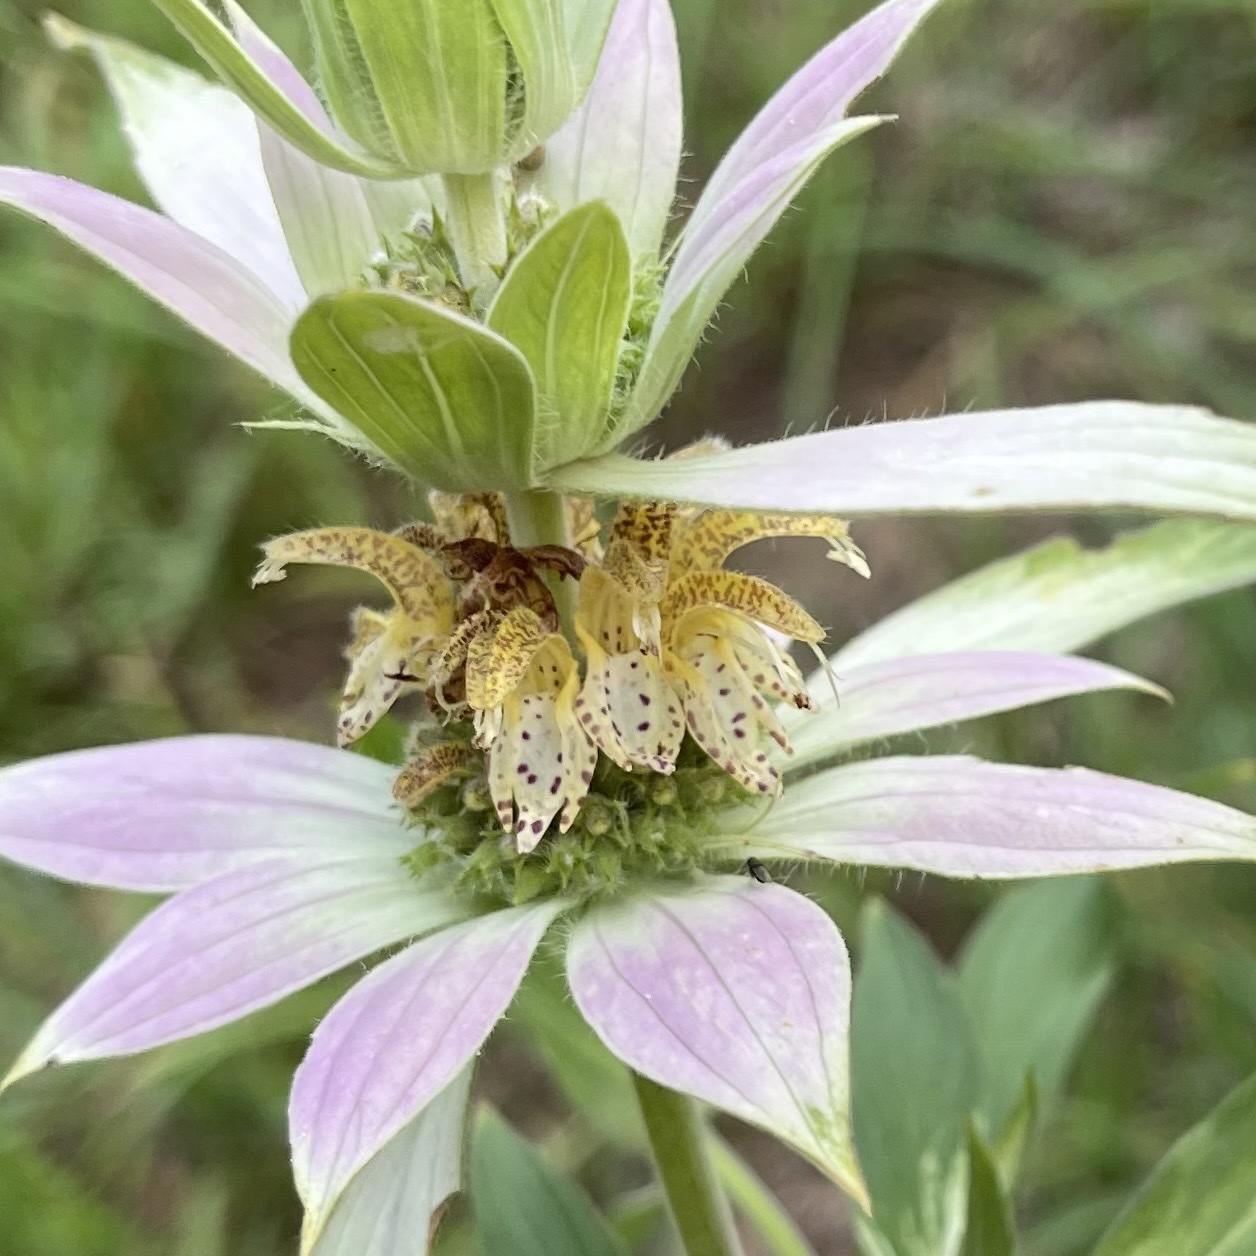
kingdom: Plantae
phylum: Tracheophyta
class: Magnoliopsida
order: Lamiales
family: Lamiaceae
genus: Monarda
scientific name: Monarda punctata
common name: Dotted monarda
